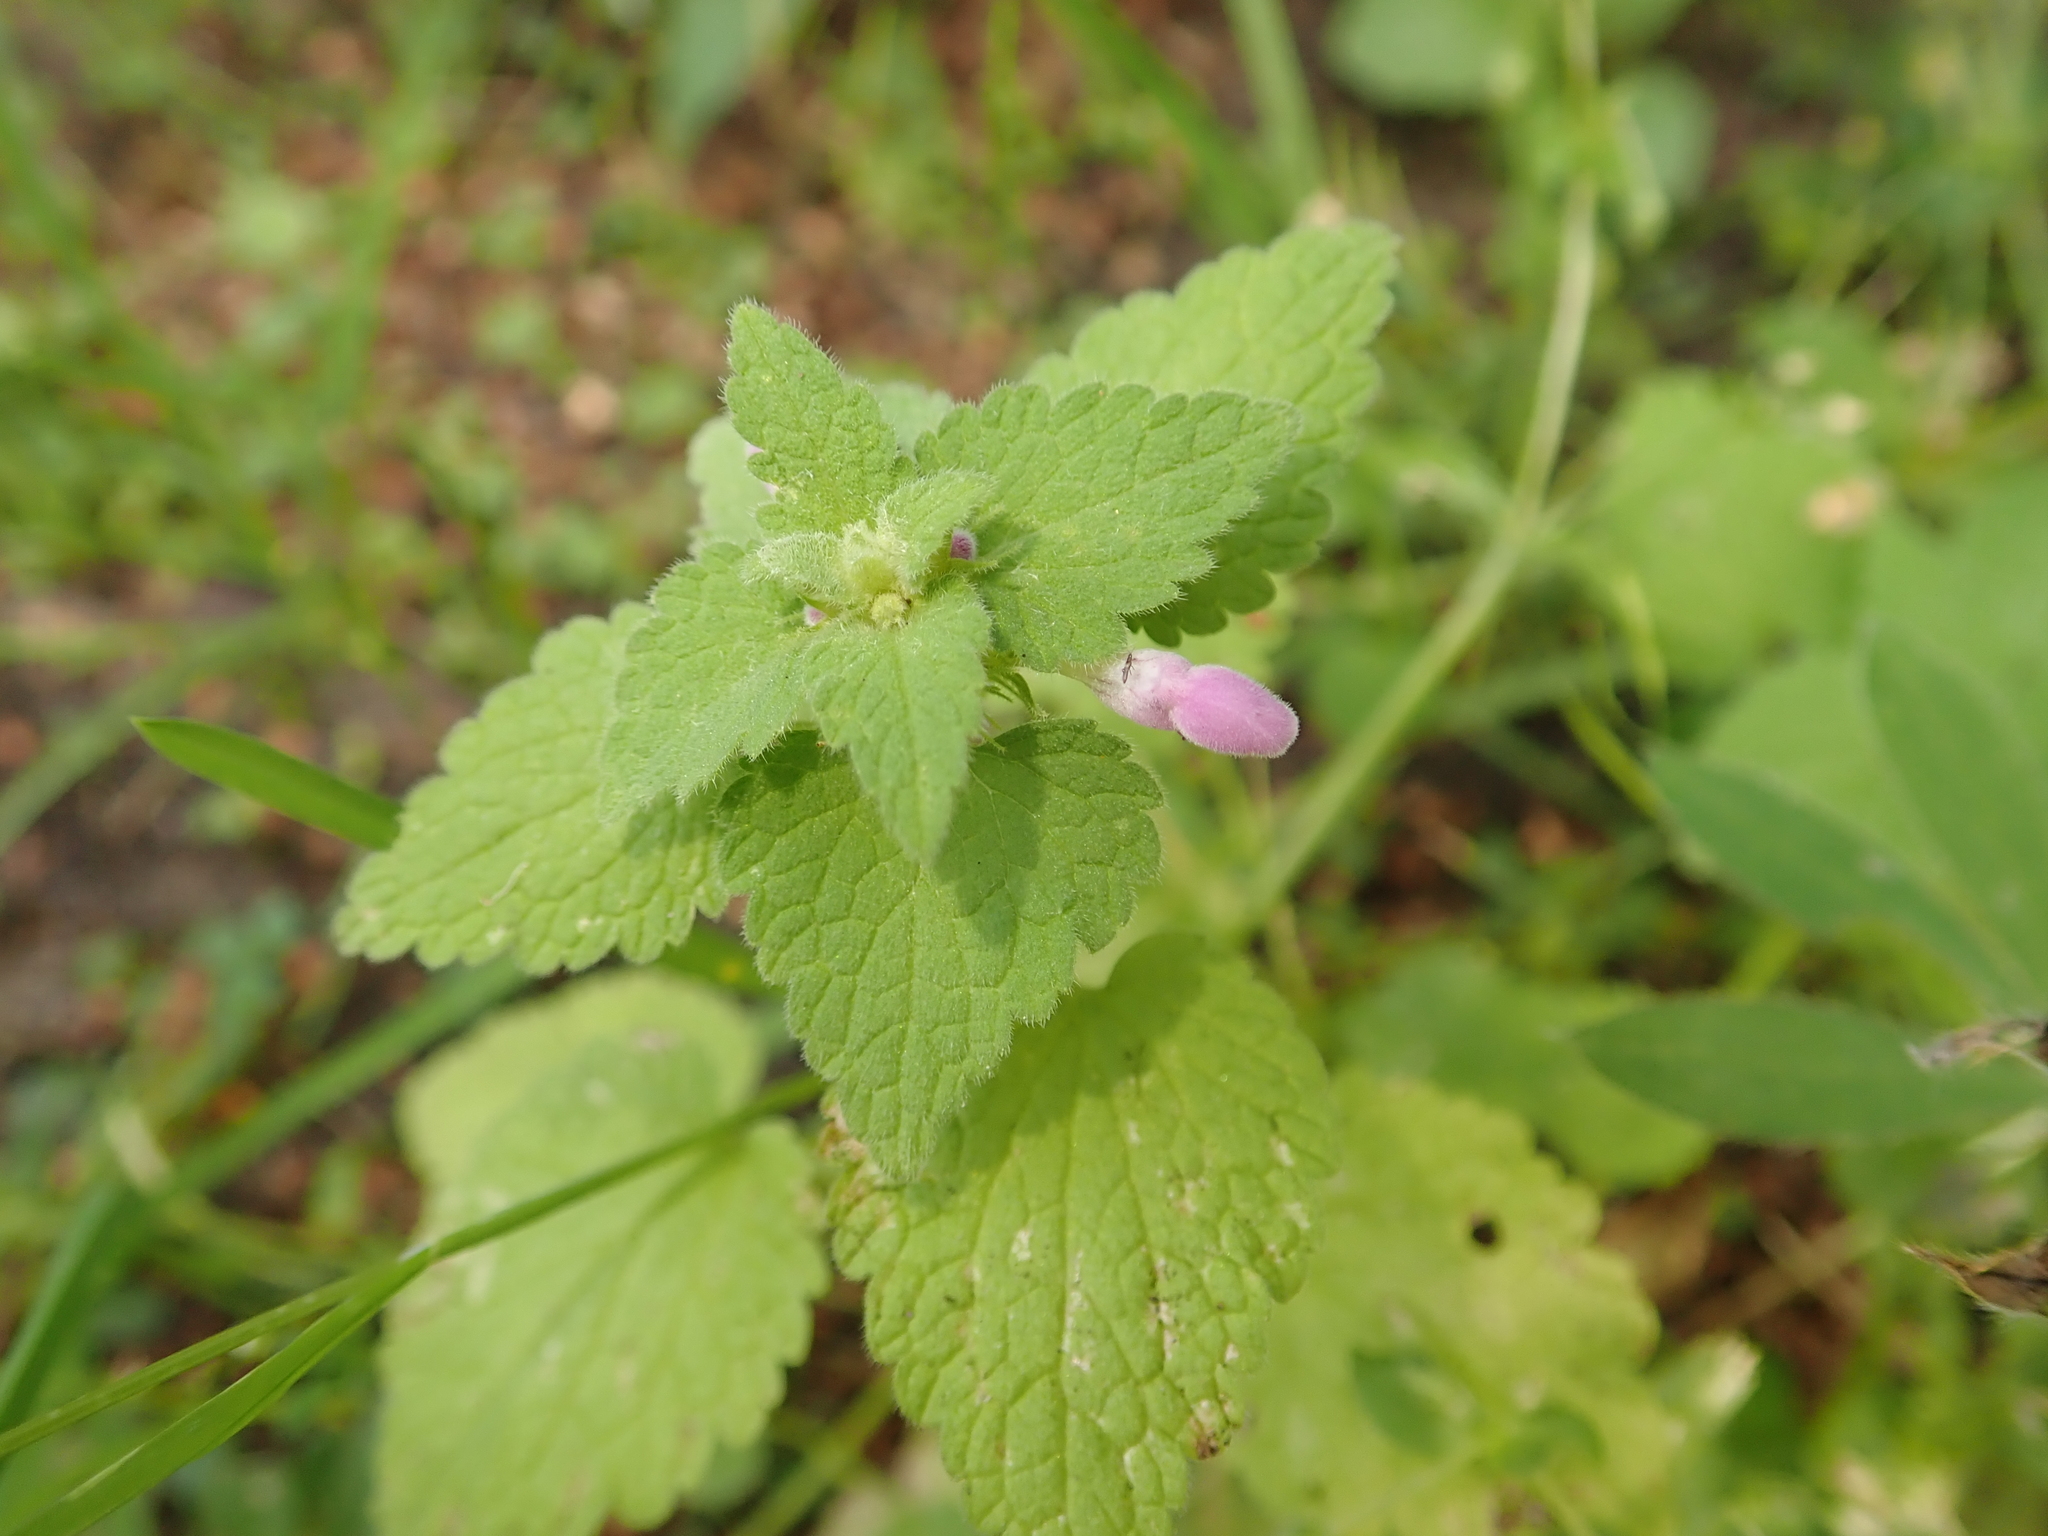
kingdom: Plantae
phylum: Tracheophyta
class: Magnoliopsida
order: Lamiales
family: Lamiaceae
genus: Lamium
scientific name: Lamium purpureum
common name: Red dead-nettle
